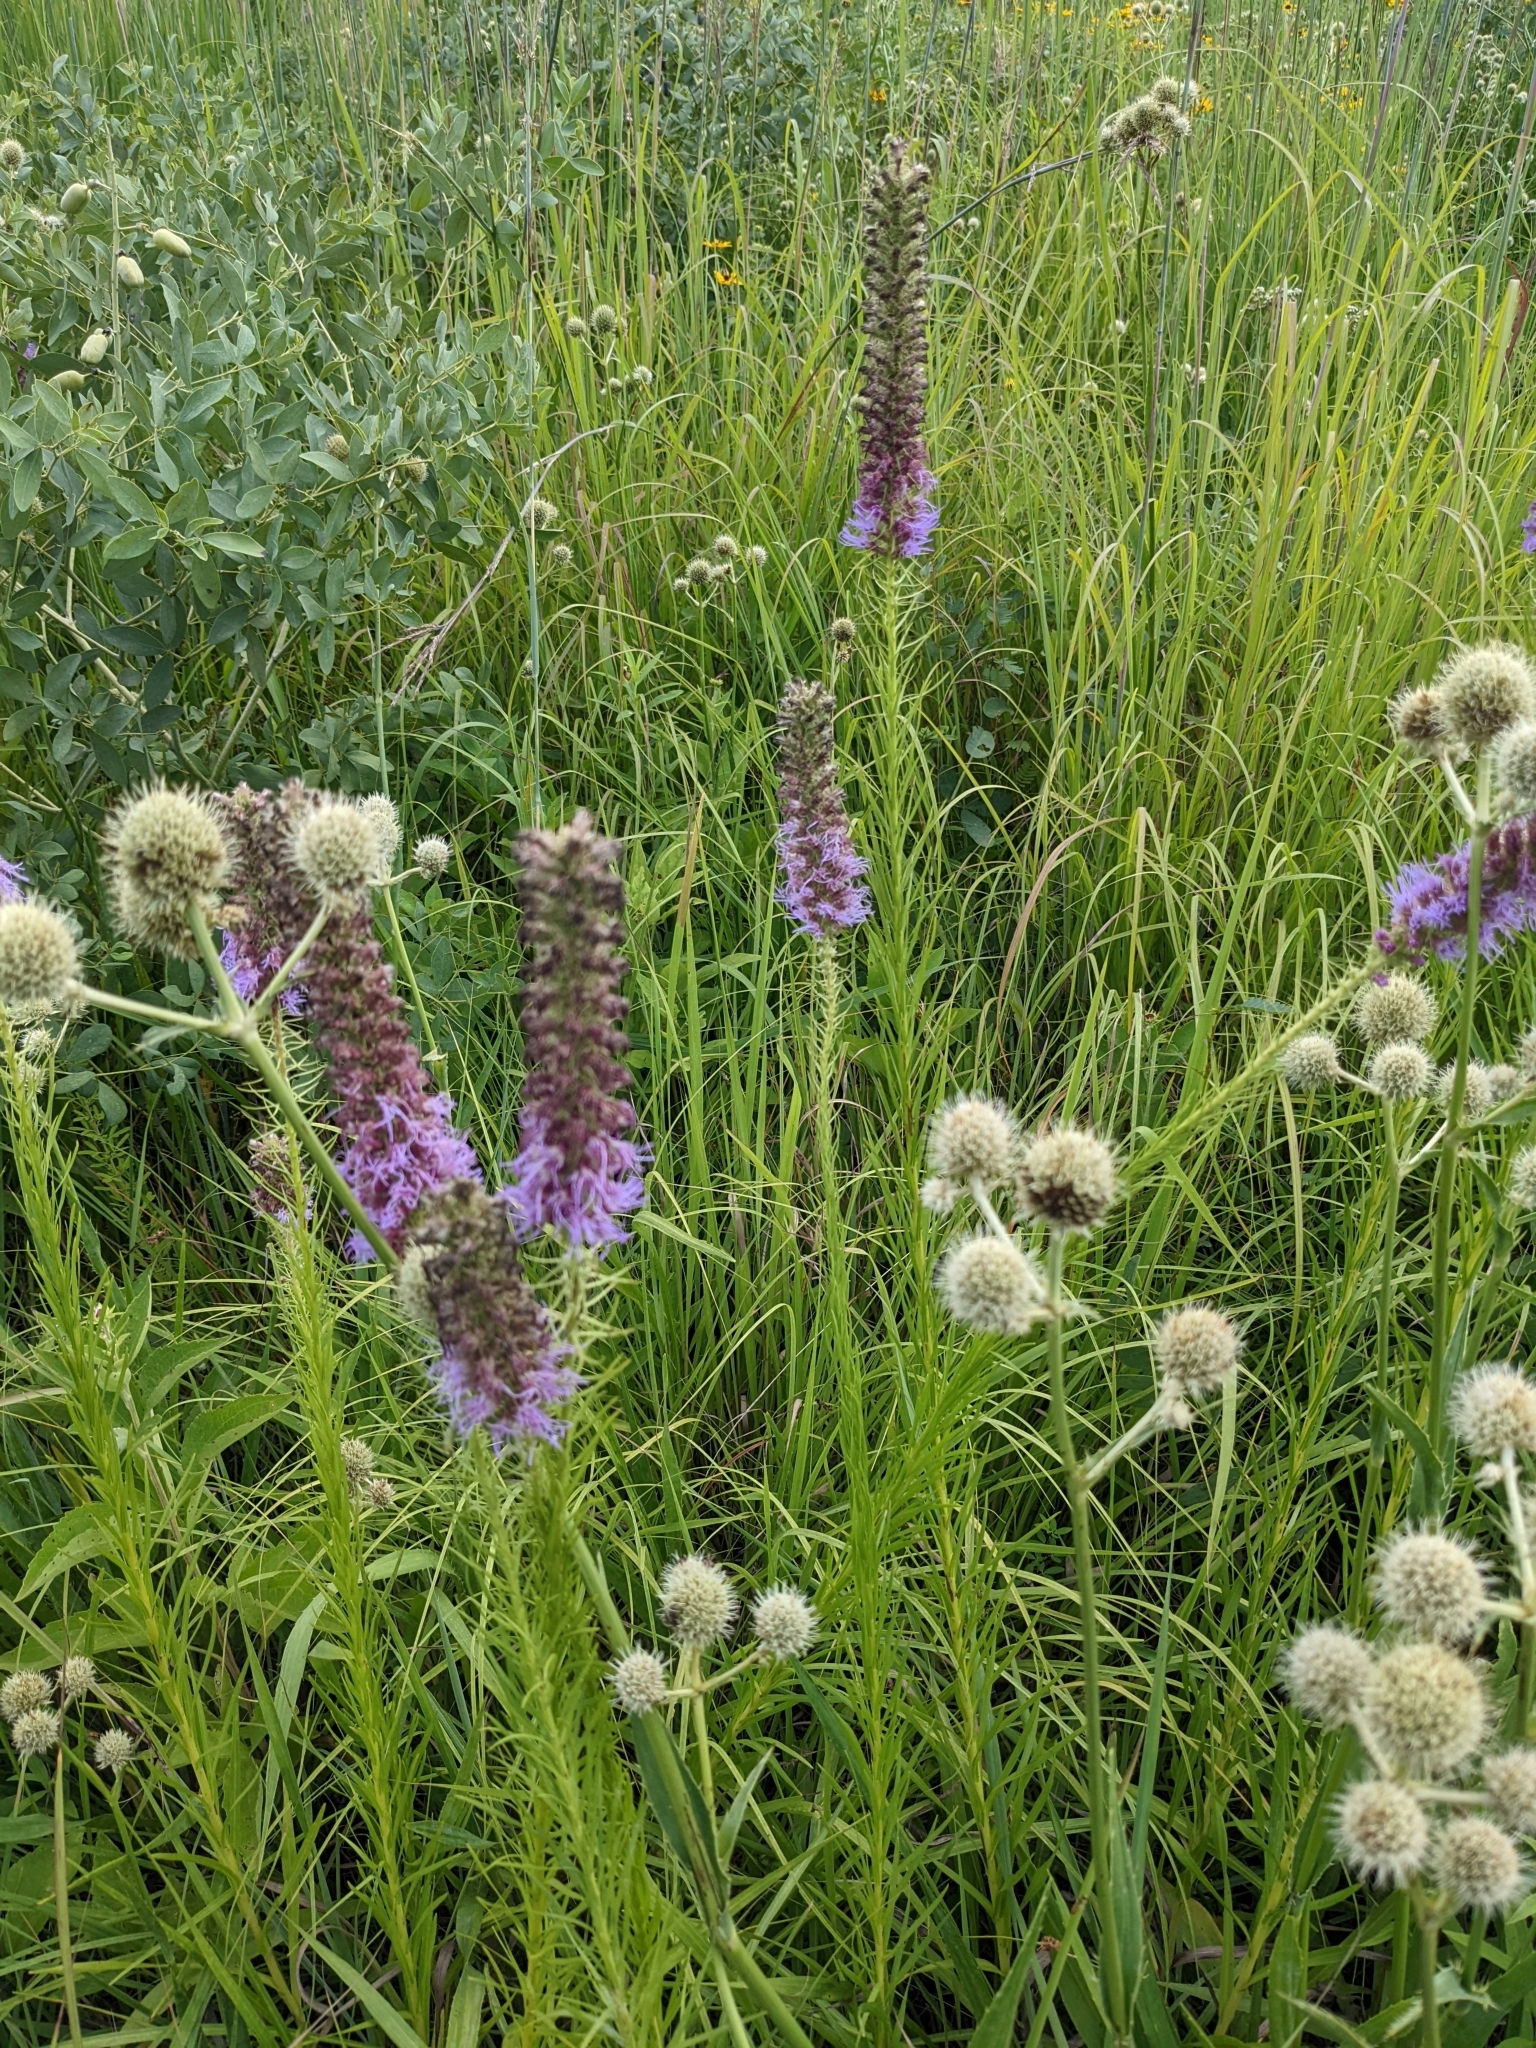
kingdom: Plantae
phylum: Tracheophyta
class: Magnoliopsida
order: Apiales
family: Apiaceae
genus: Eryngium
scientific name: Eryngium yuccifolium
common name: Button eryngo
